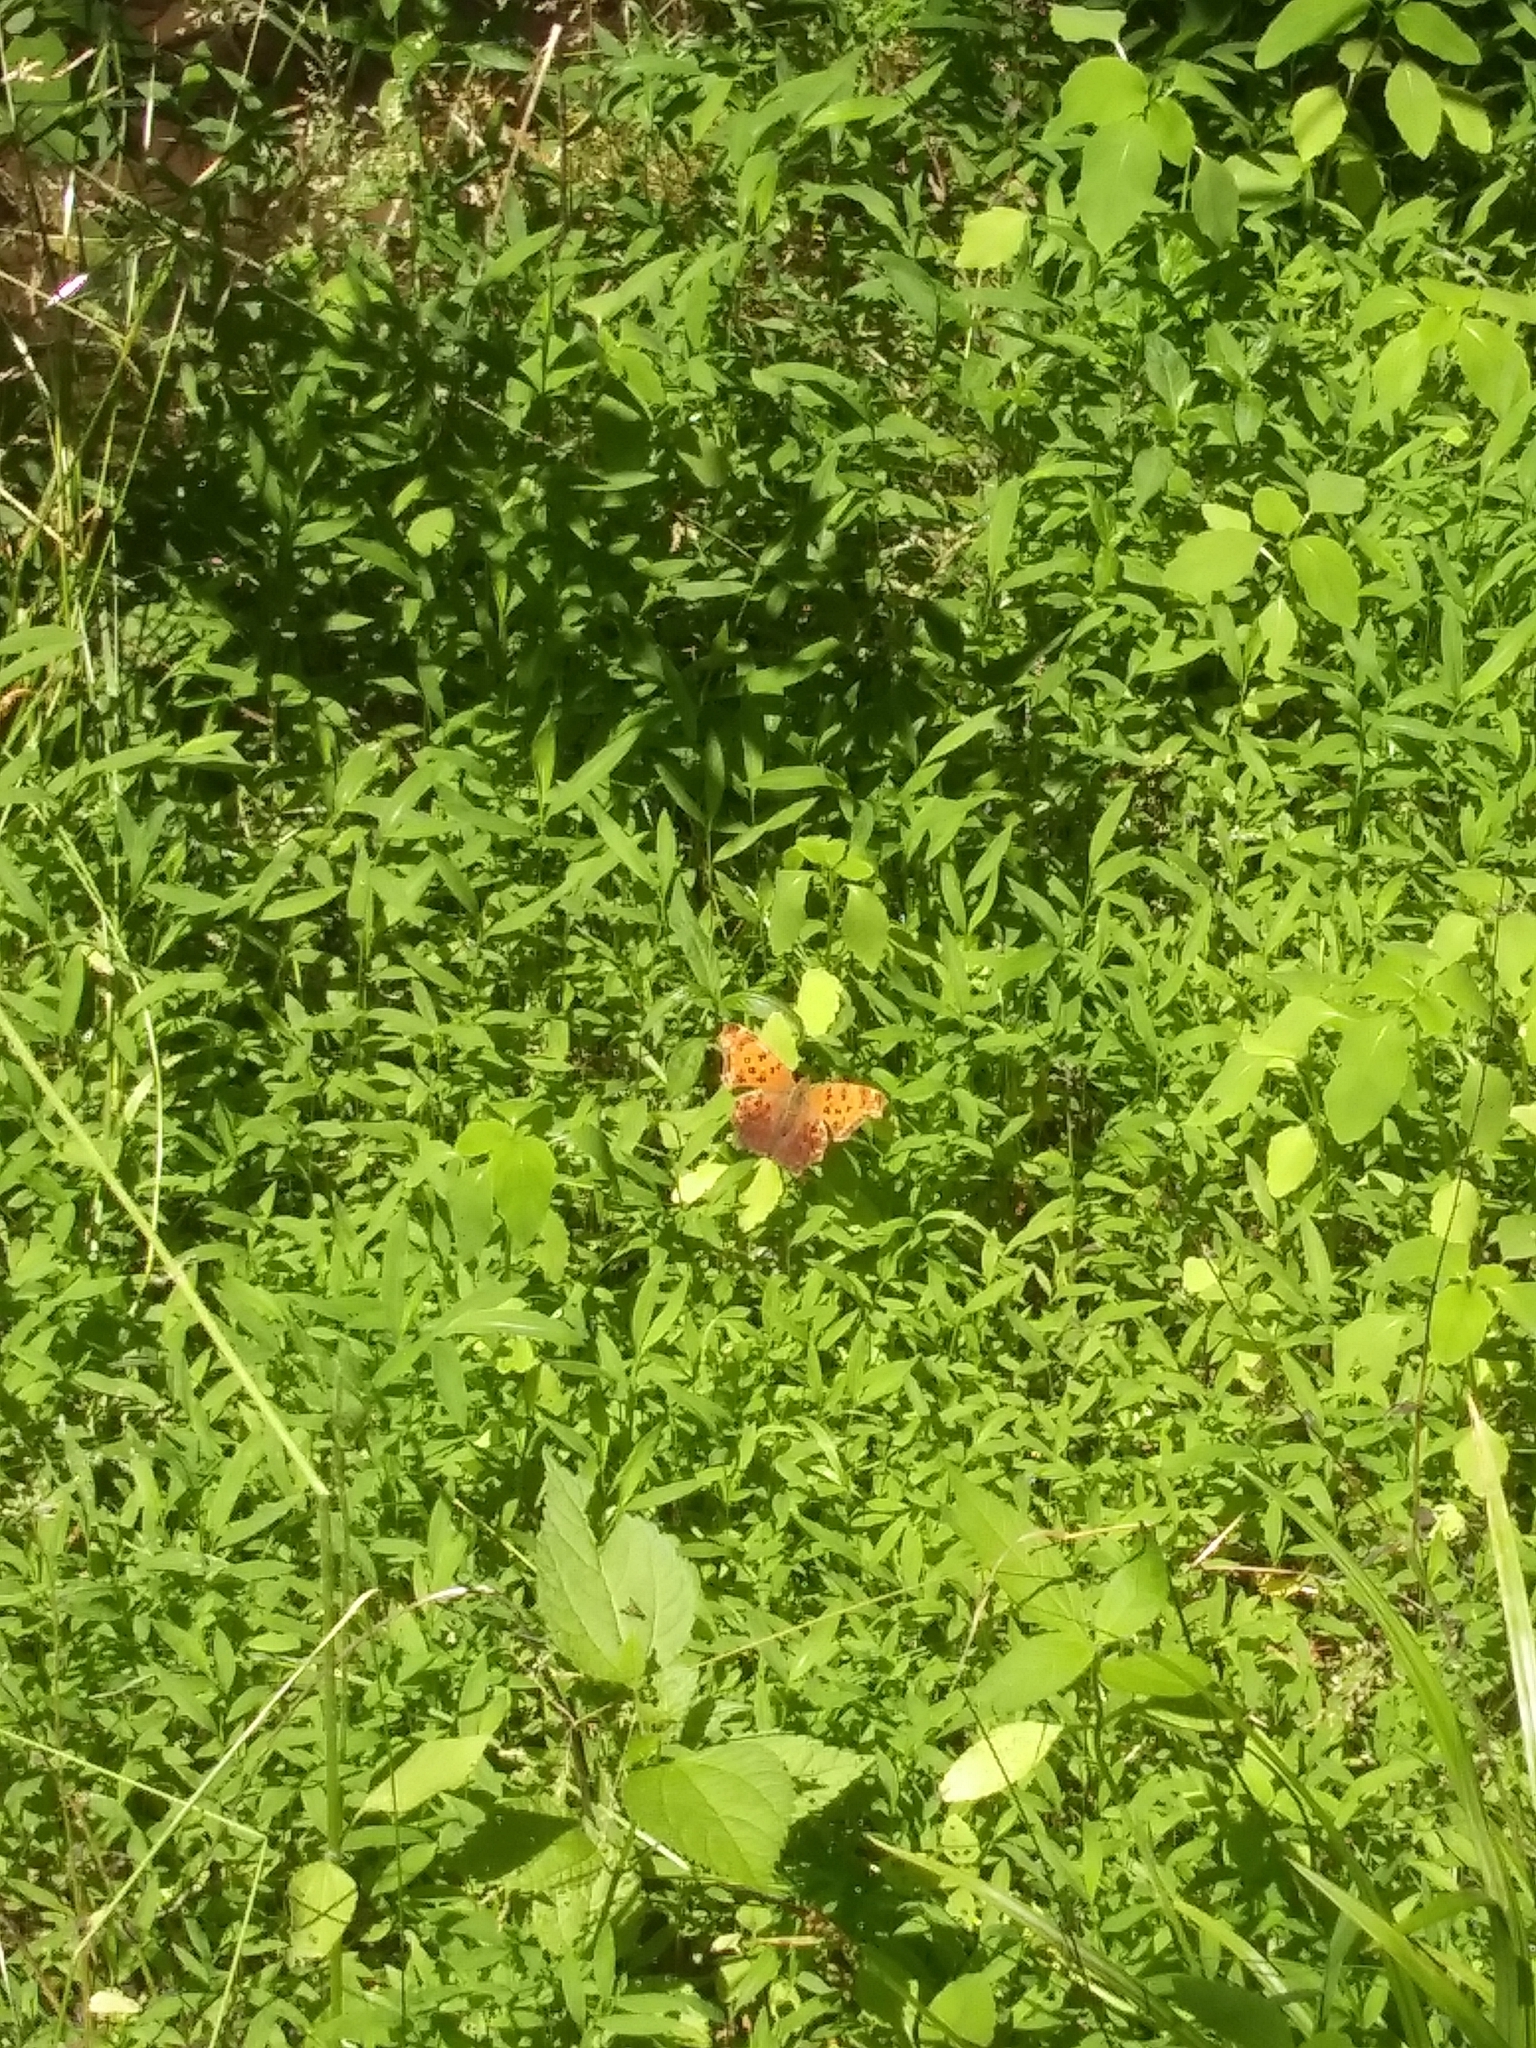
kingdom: Animalia
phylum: Arthropoda
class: Insecta
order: Lepidoptera
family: Nymphalidae
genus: Polygonia
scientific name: Polygonia comma
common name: Eastern comma
